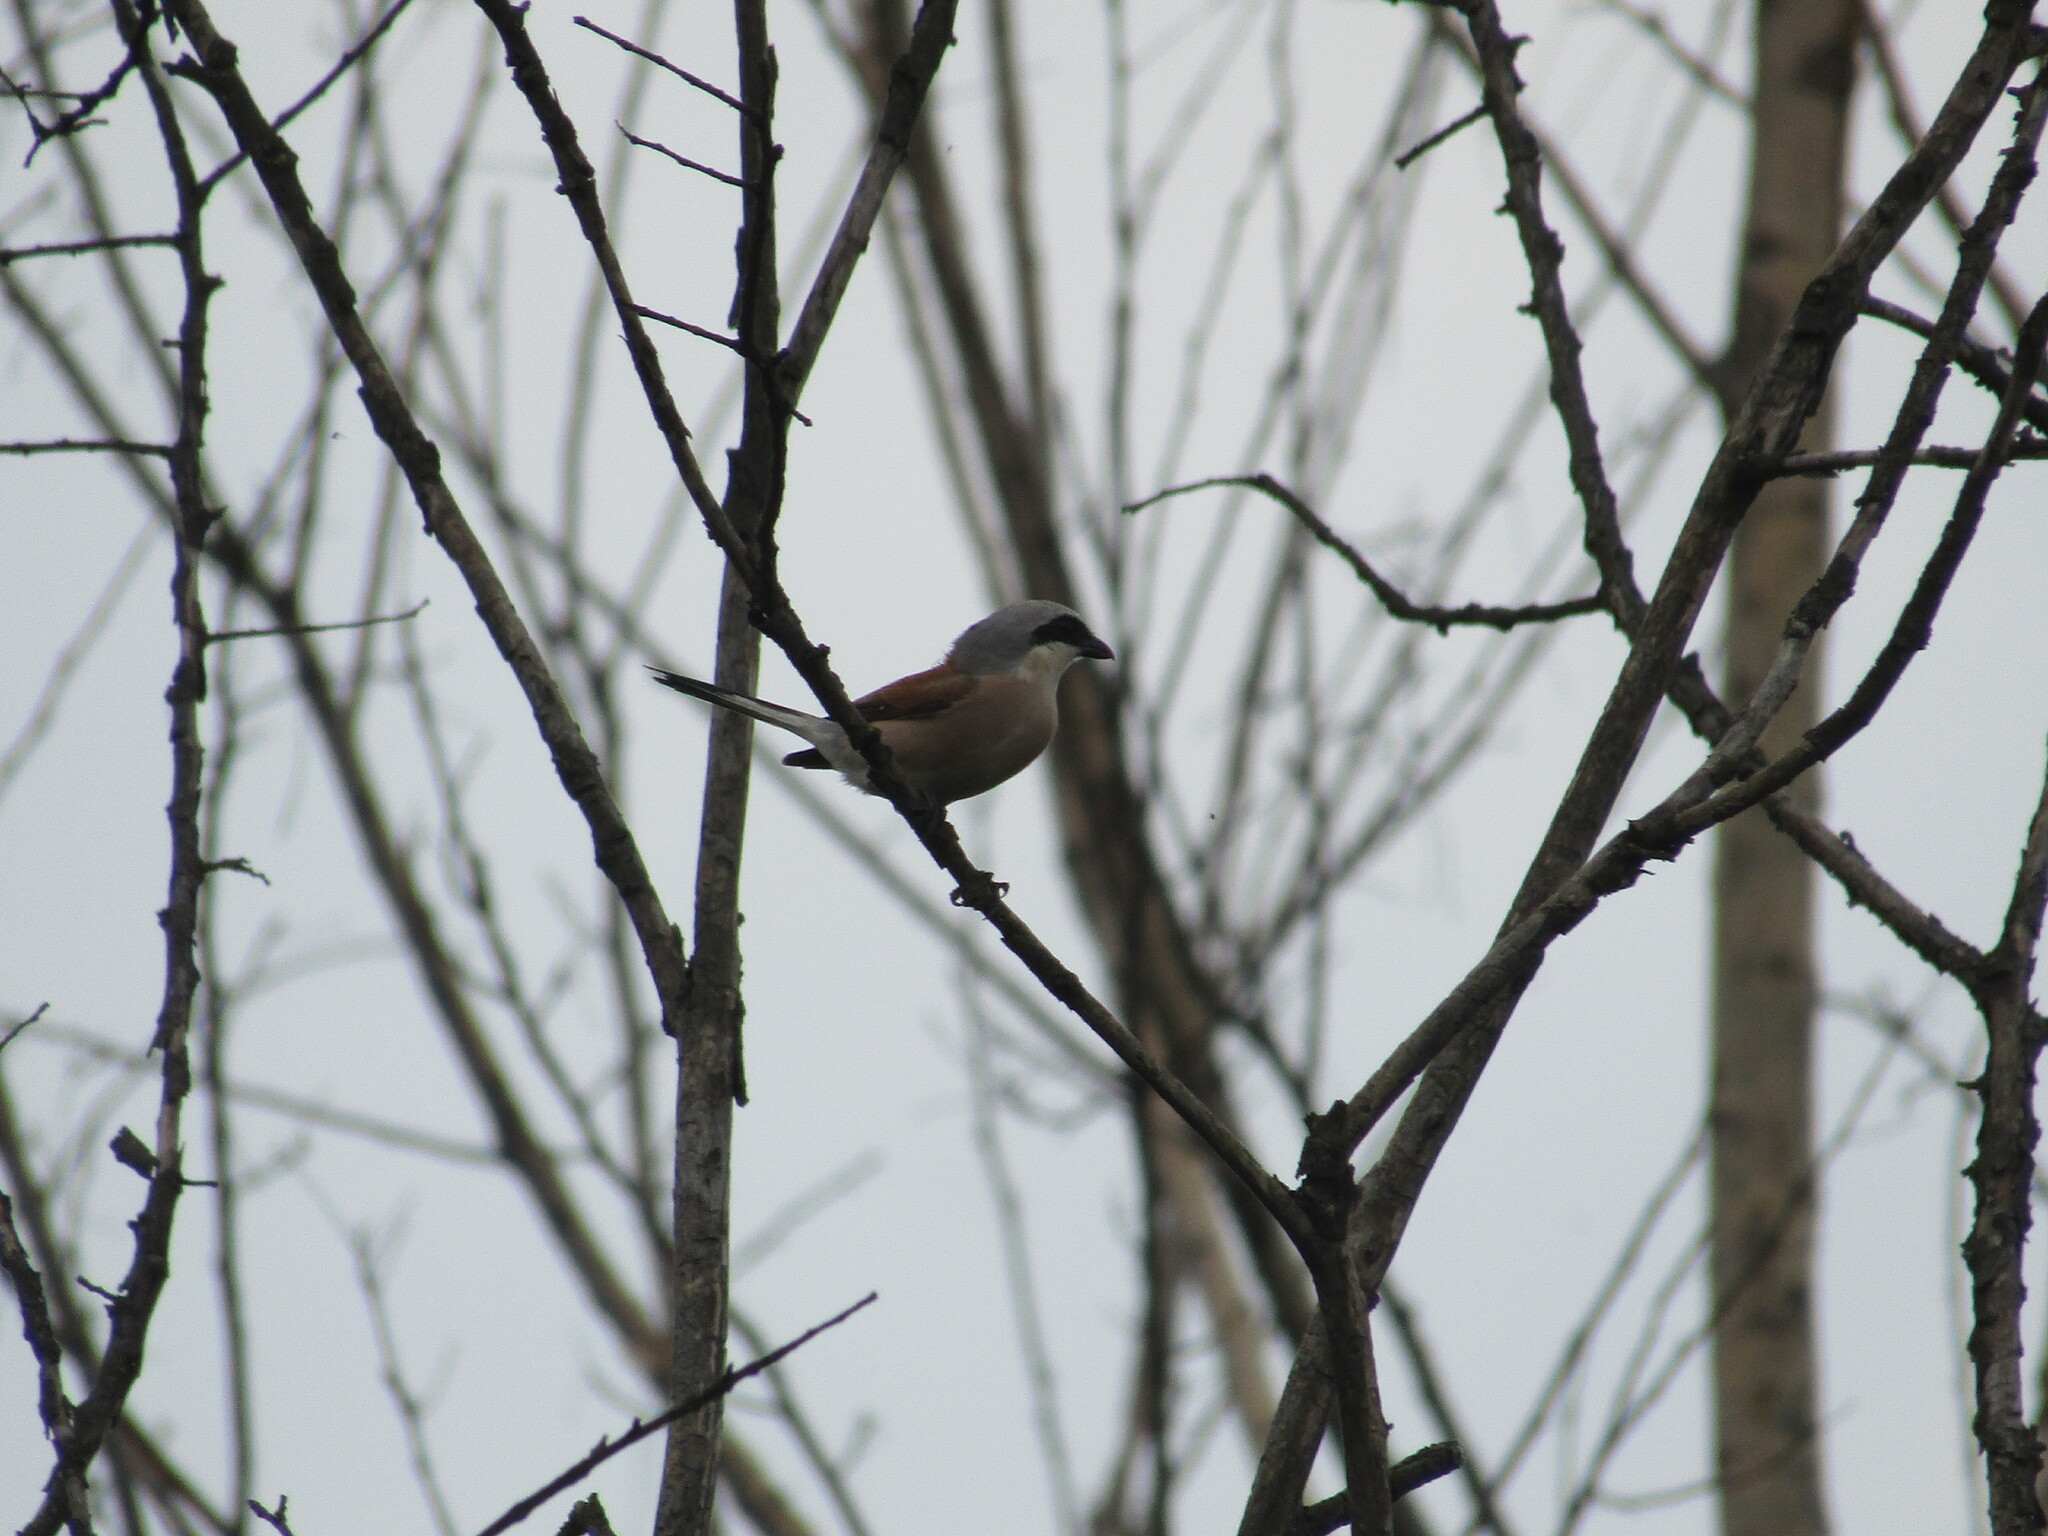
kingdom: Animalia
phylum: Chordata
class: Aves
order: Passeriformes
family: Laniidae
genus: Lanius
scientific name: Lanius collurio
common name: Red-backed shrike
